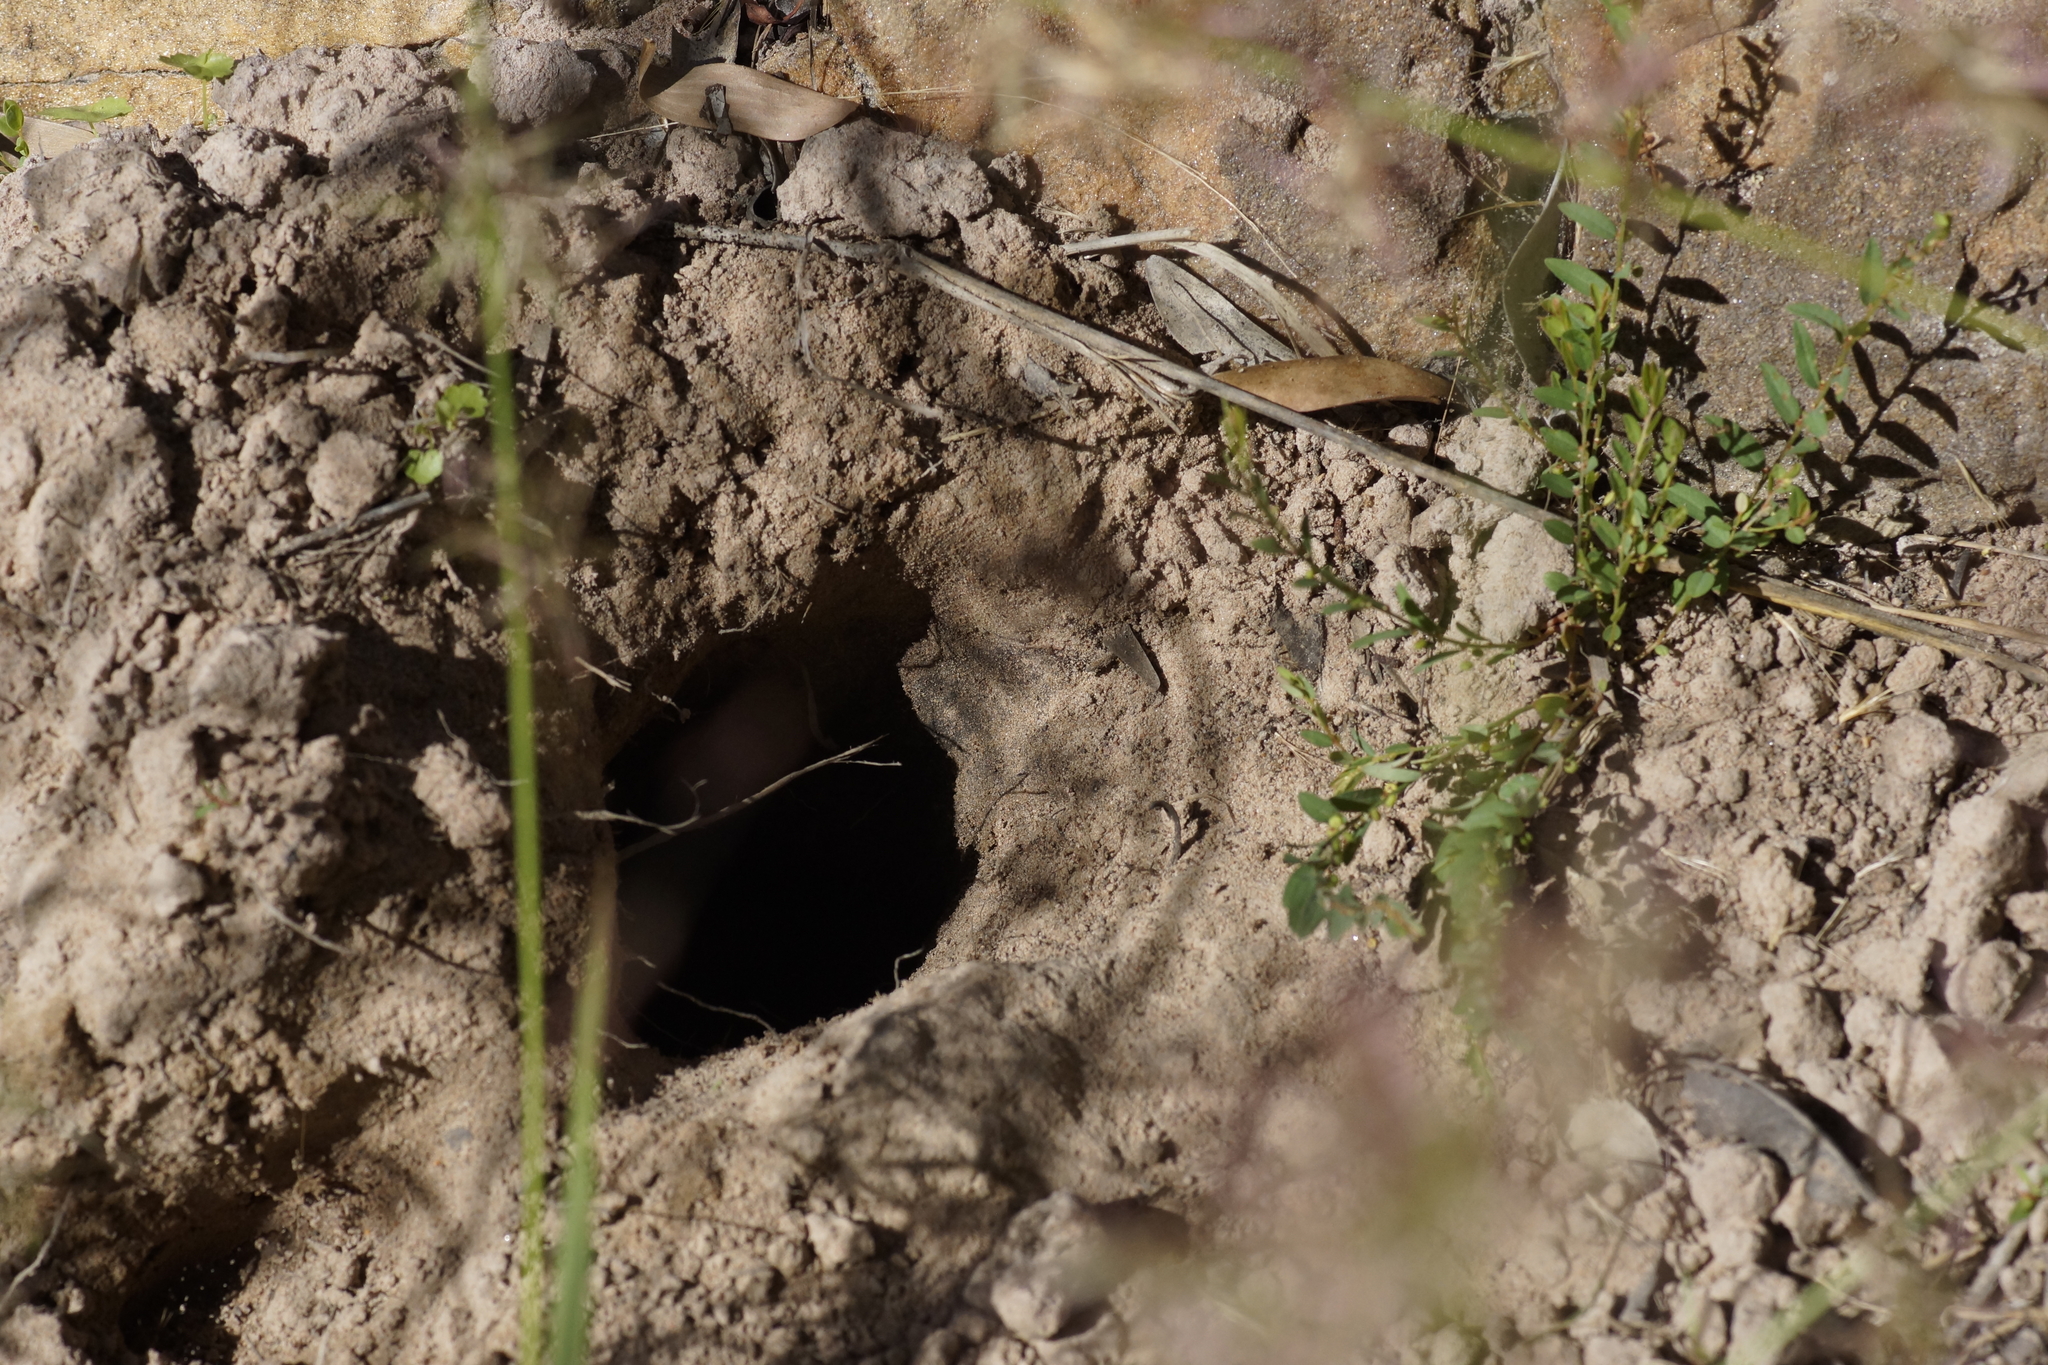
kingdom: Animalia
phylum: Chordata
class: Amphibia
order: Anura
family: Bufonidae
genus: Rhinella
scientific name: Rhinella marina
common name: Cane toad
